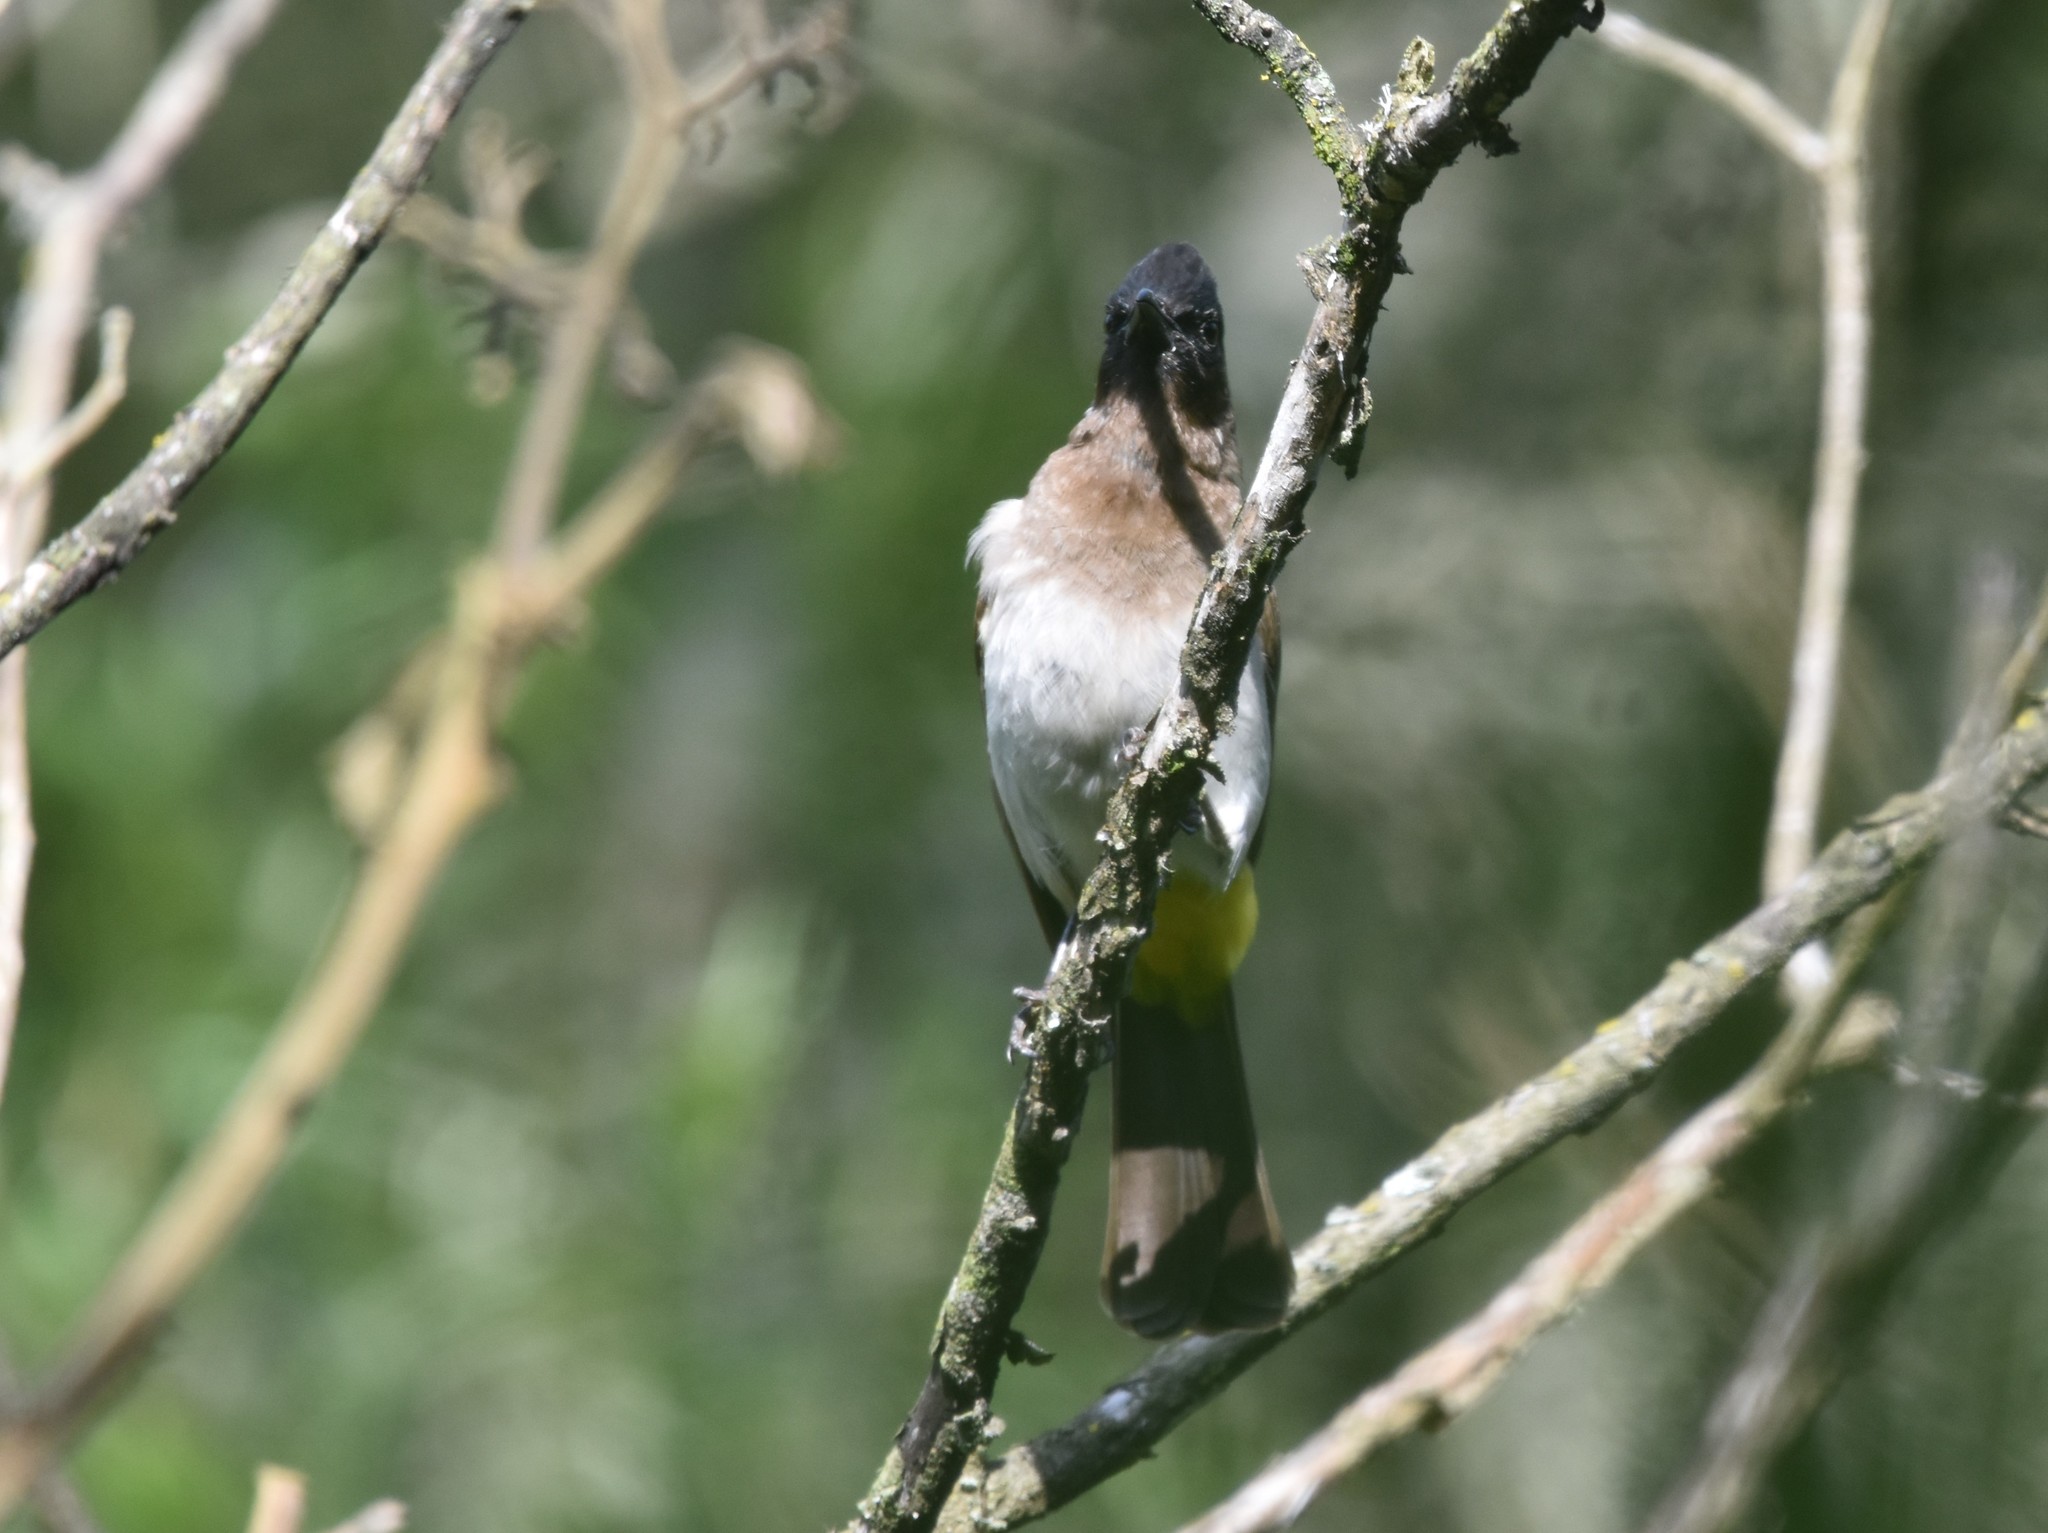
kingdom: Animalia
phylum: Chordata
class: Aves
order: Passeriformes
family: Pycnonotidae
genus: Pycnonotus
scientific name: Pycnonotus barbatus
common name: Common bulbul
